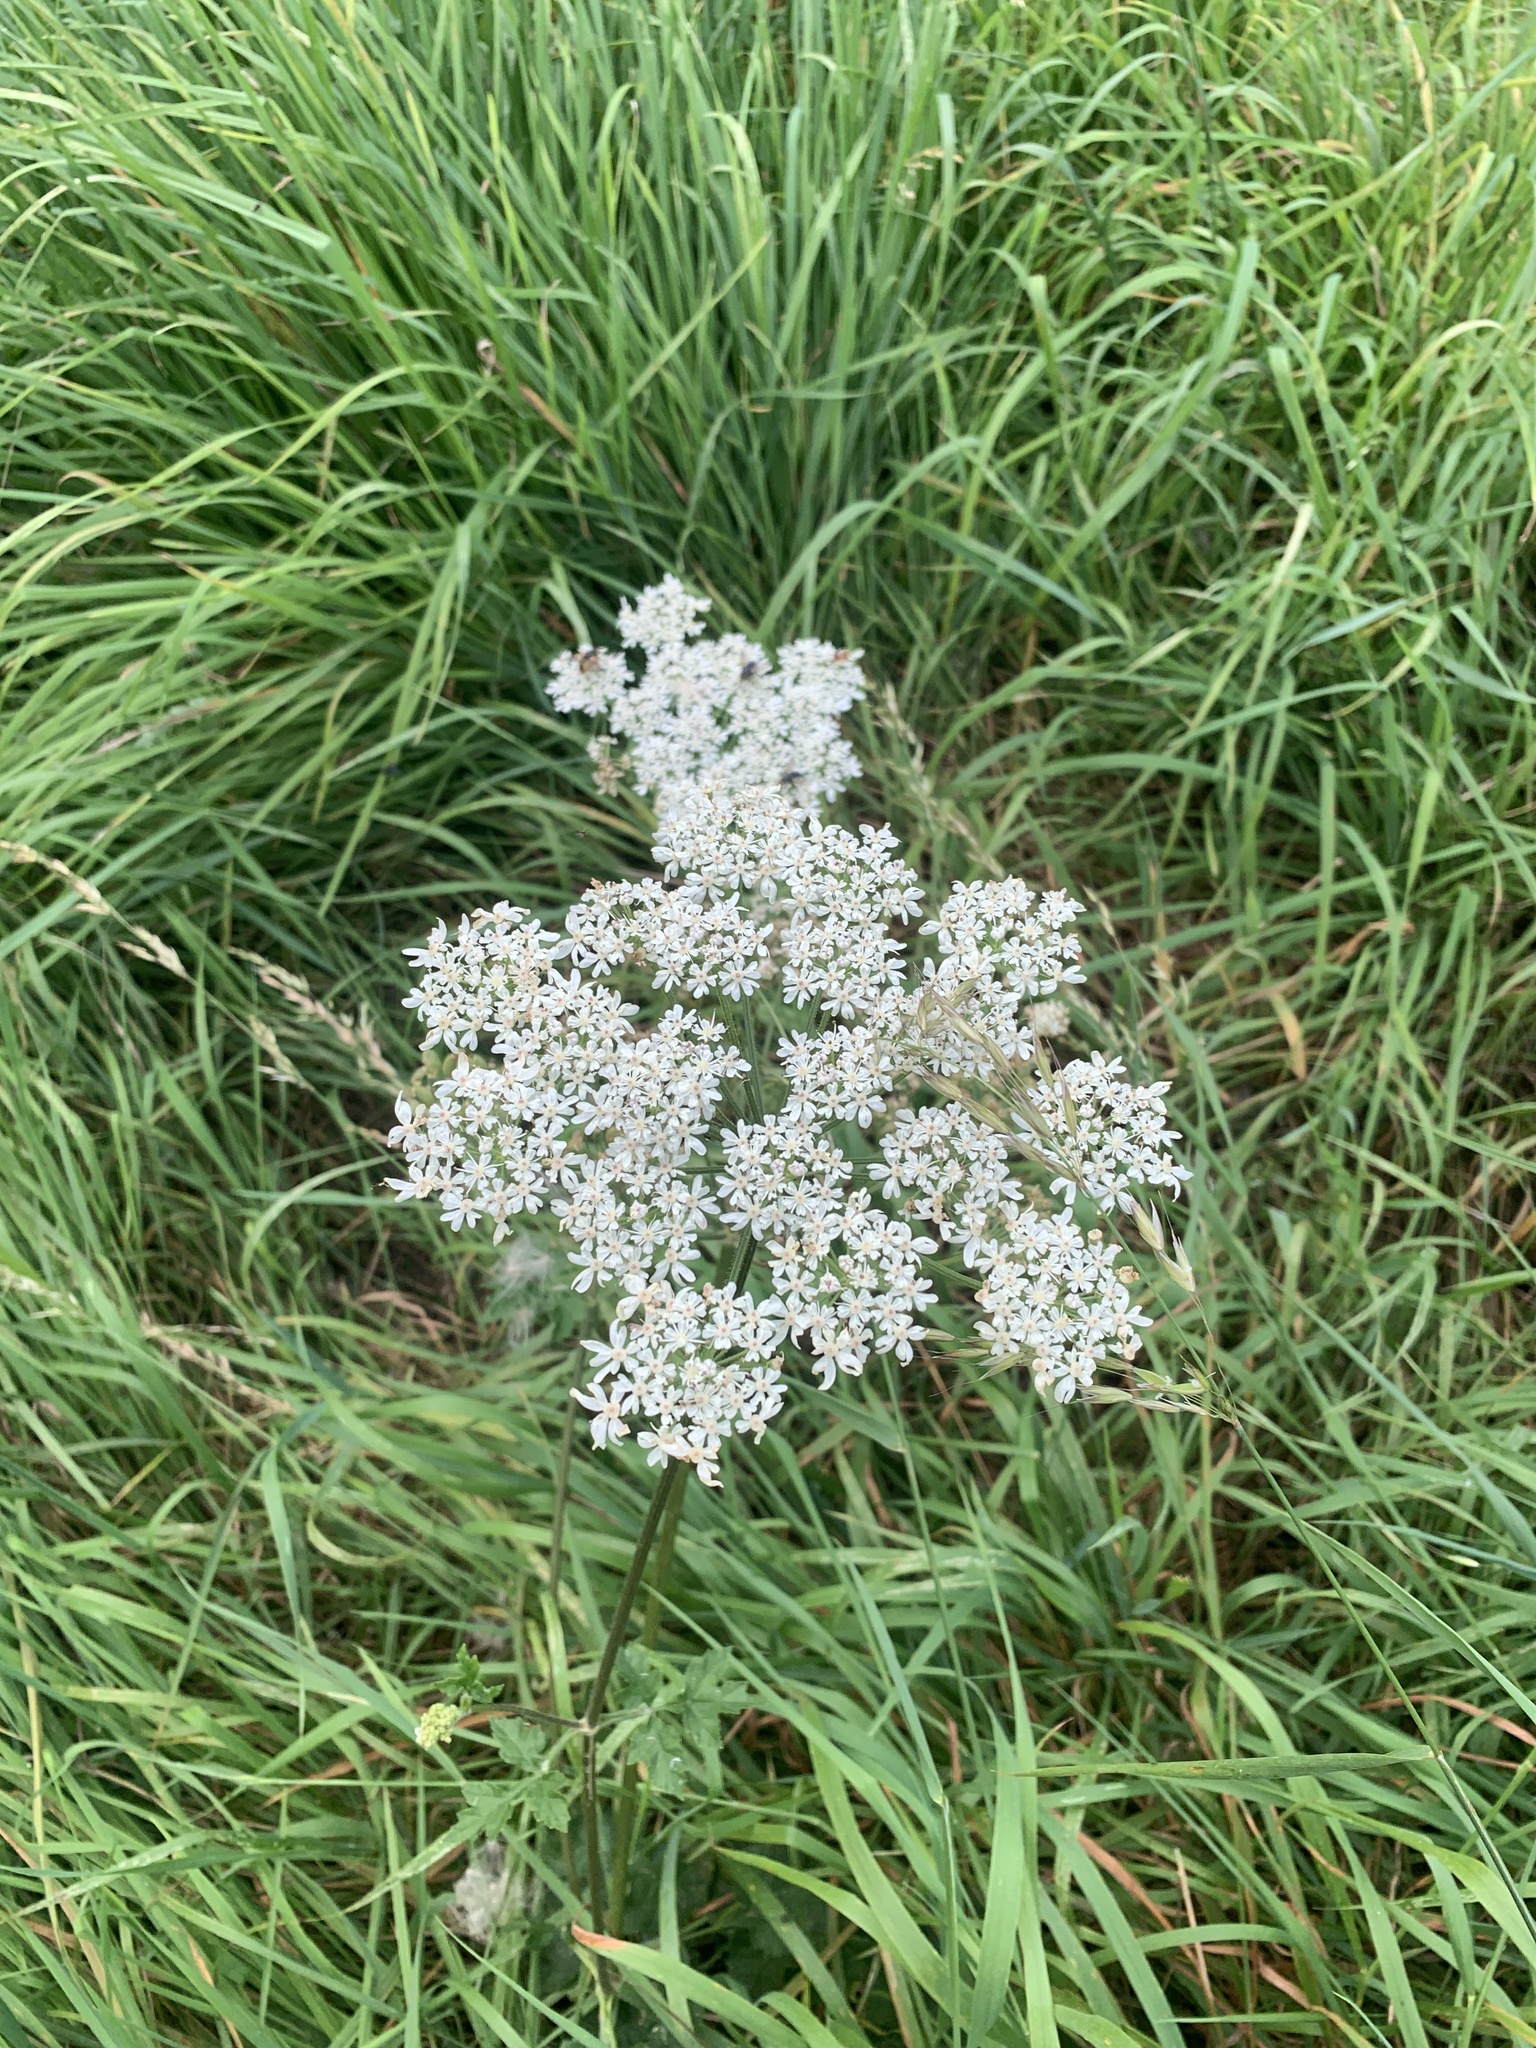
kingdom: Plantae
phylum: Tracheophyta
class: Magnoliopsida
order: Apiales
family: Apiaceae
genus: Heracleum
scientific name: Heracleum sphondylium
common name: Hogweed
